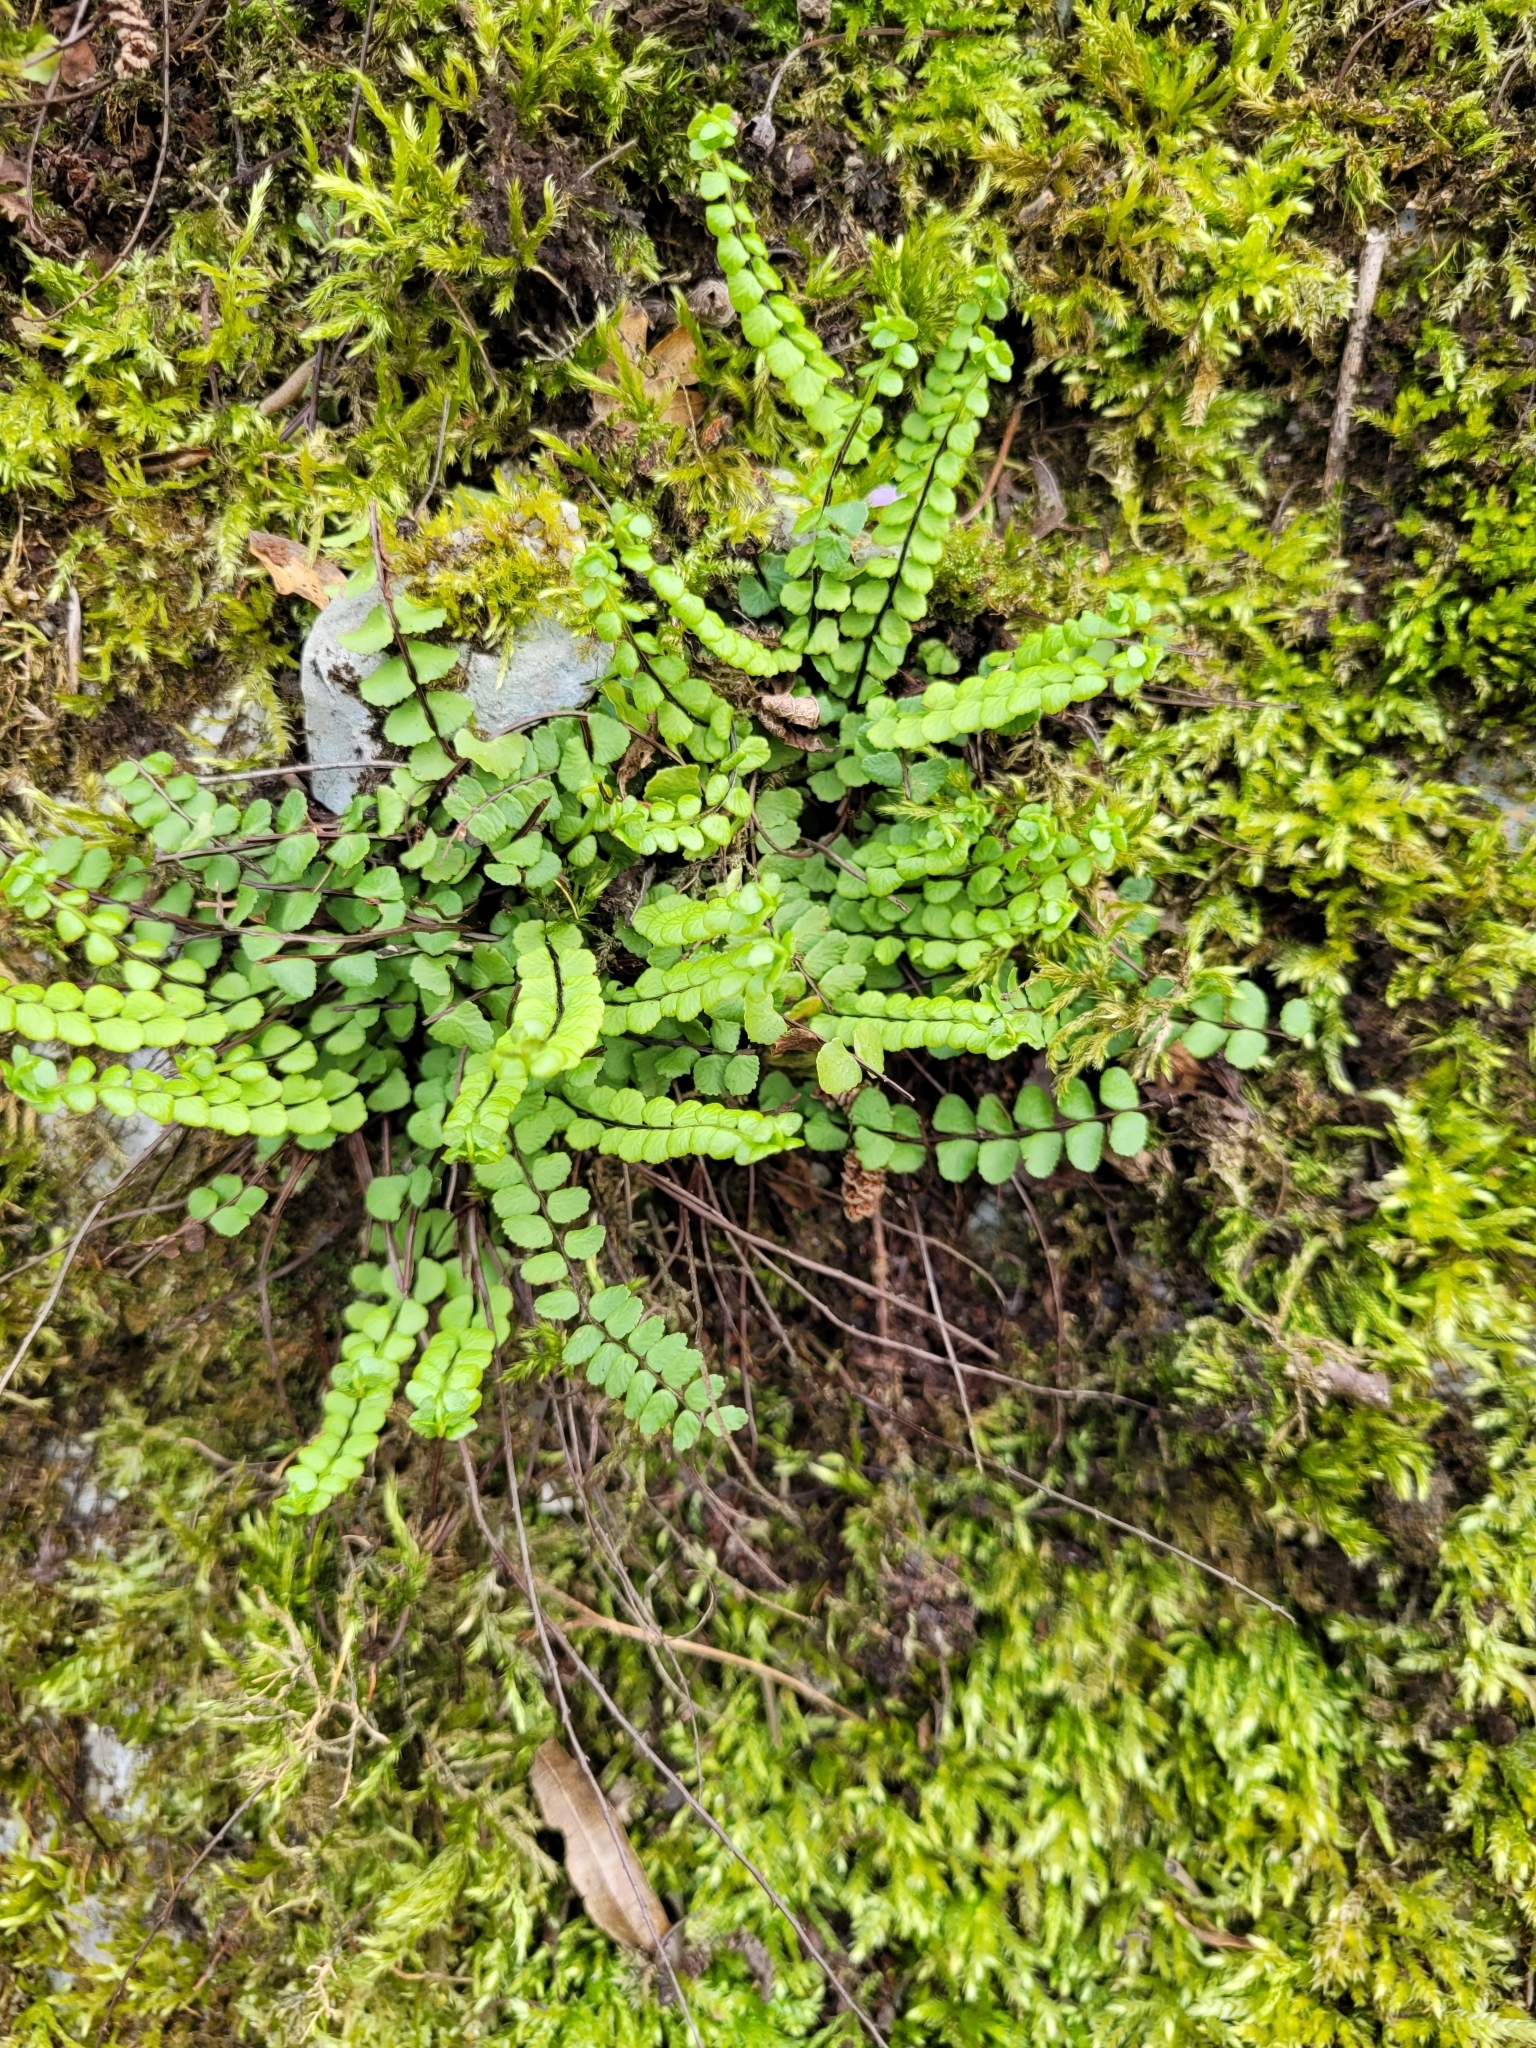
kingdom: Plantae
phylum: Tracheophyta
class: Polypodiopsida
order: Polypodiales
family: Aspleniaceae
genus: Asplenium
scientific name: Asplenium trichomanes
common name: Maidenhair spleenwort
